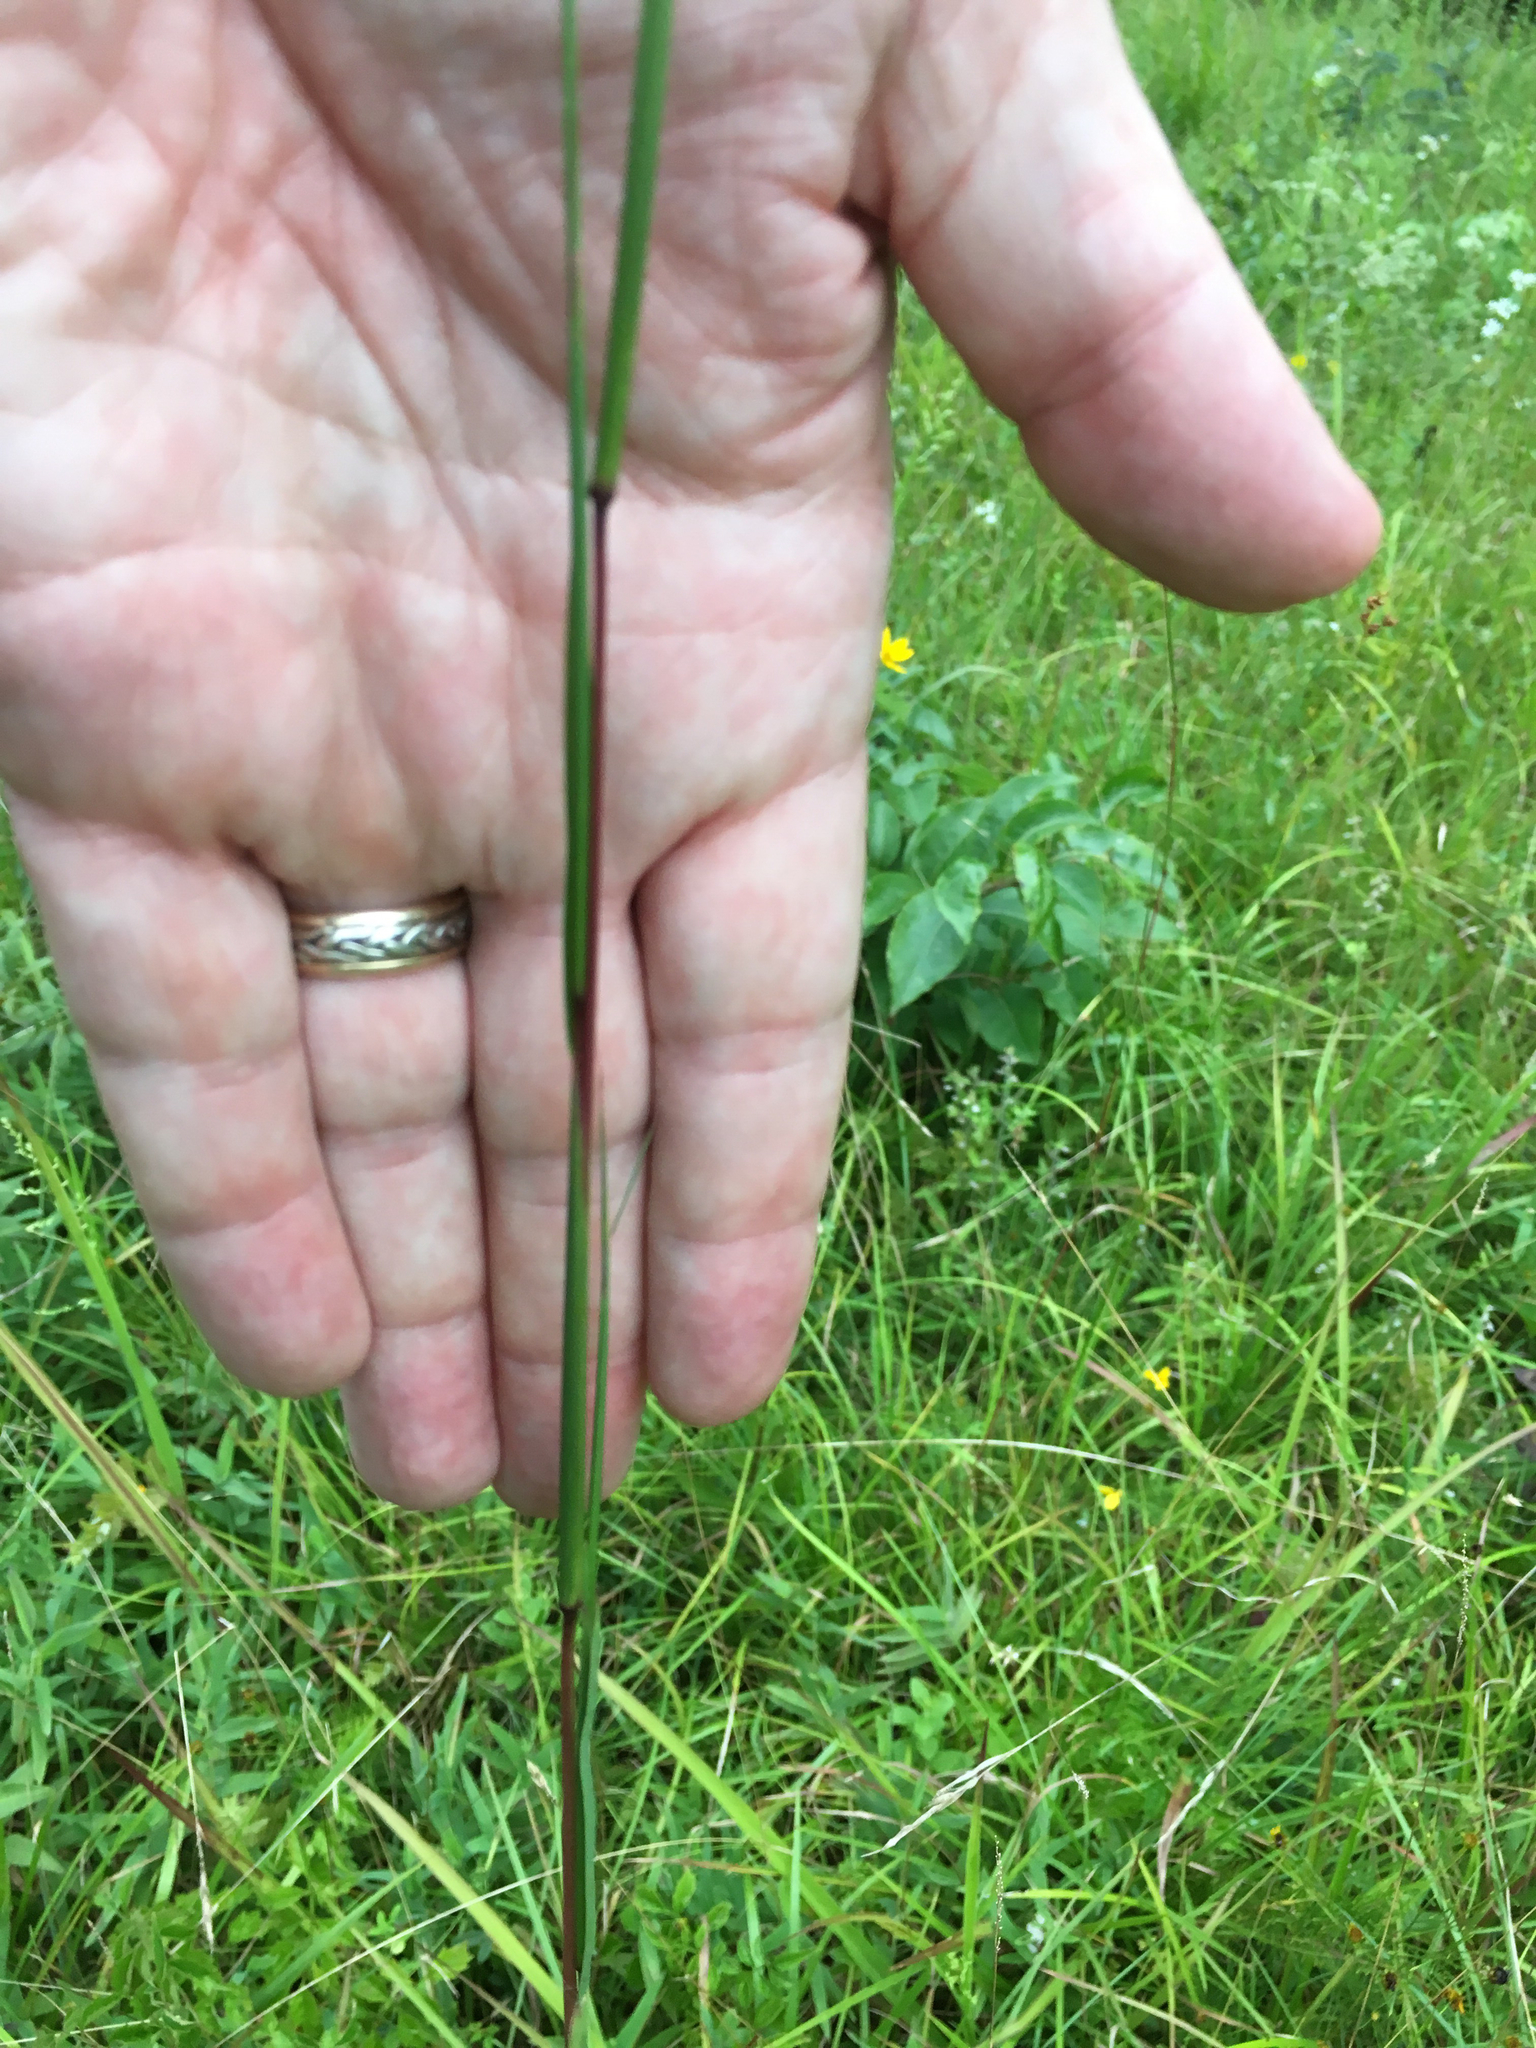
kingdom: Plantae
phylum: Tracheophyta
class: Liliopsida
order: Poales
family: Poaceae
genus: Schizachyrium
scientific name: Schizachyrium scoparium
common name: Little bluestem
